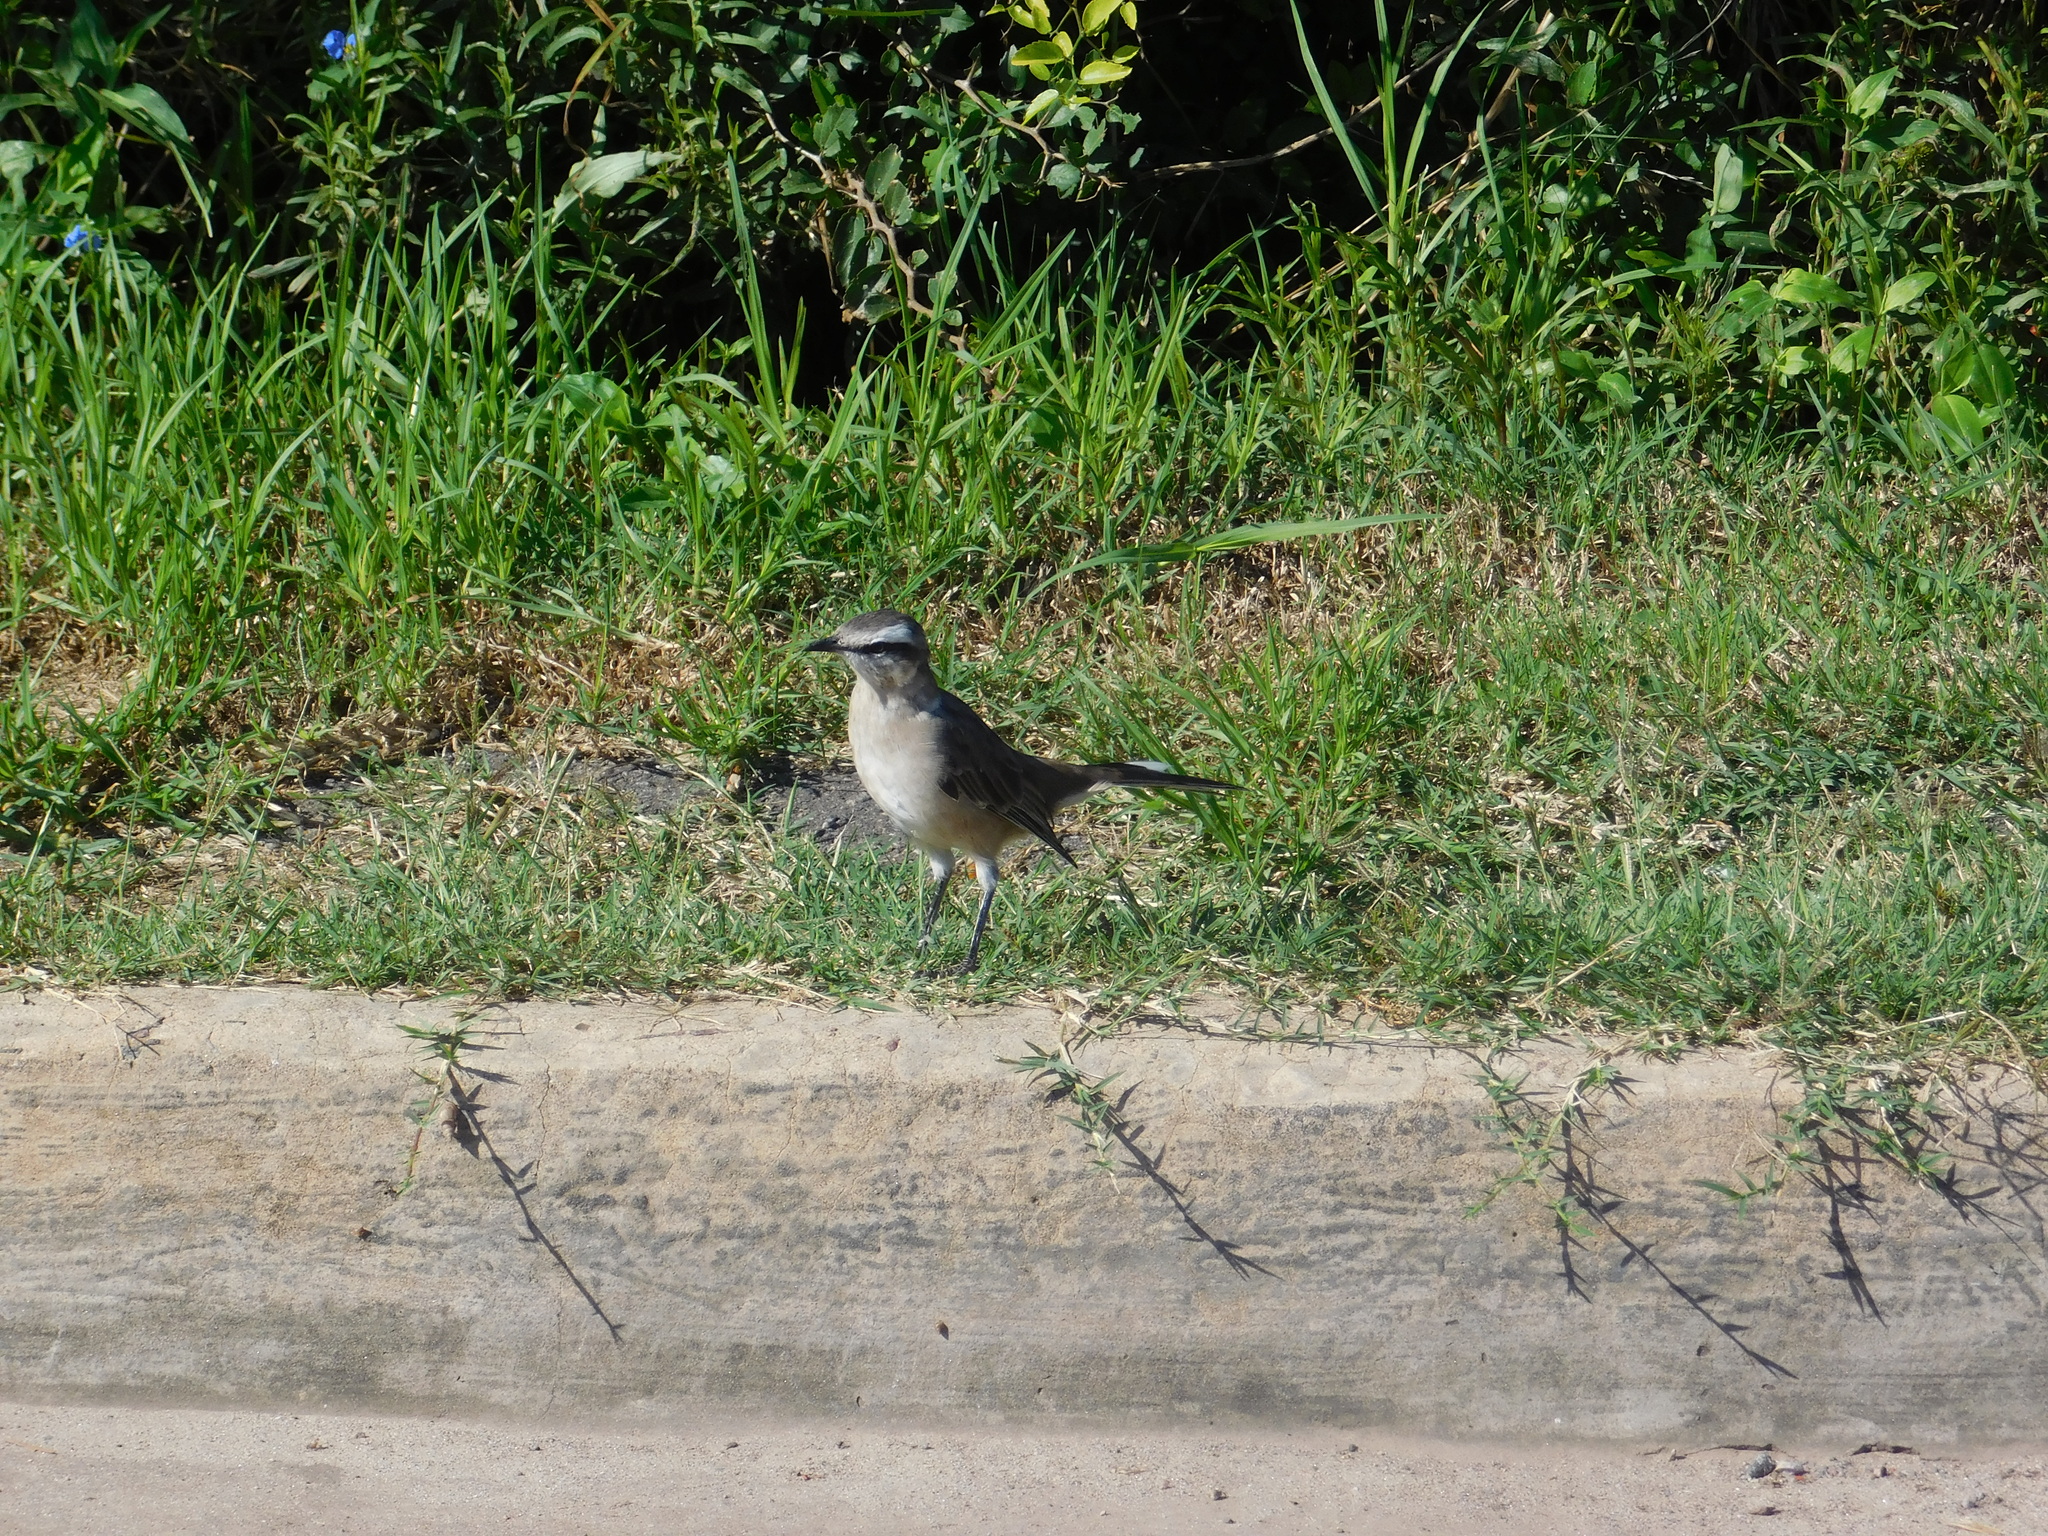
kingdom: Animalia
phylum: Chordata
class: Aves
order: Passeriformes
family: Mimidae
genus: Mimus
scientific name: Mimus saturninus
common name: Chalk-browed mockingbird
